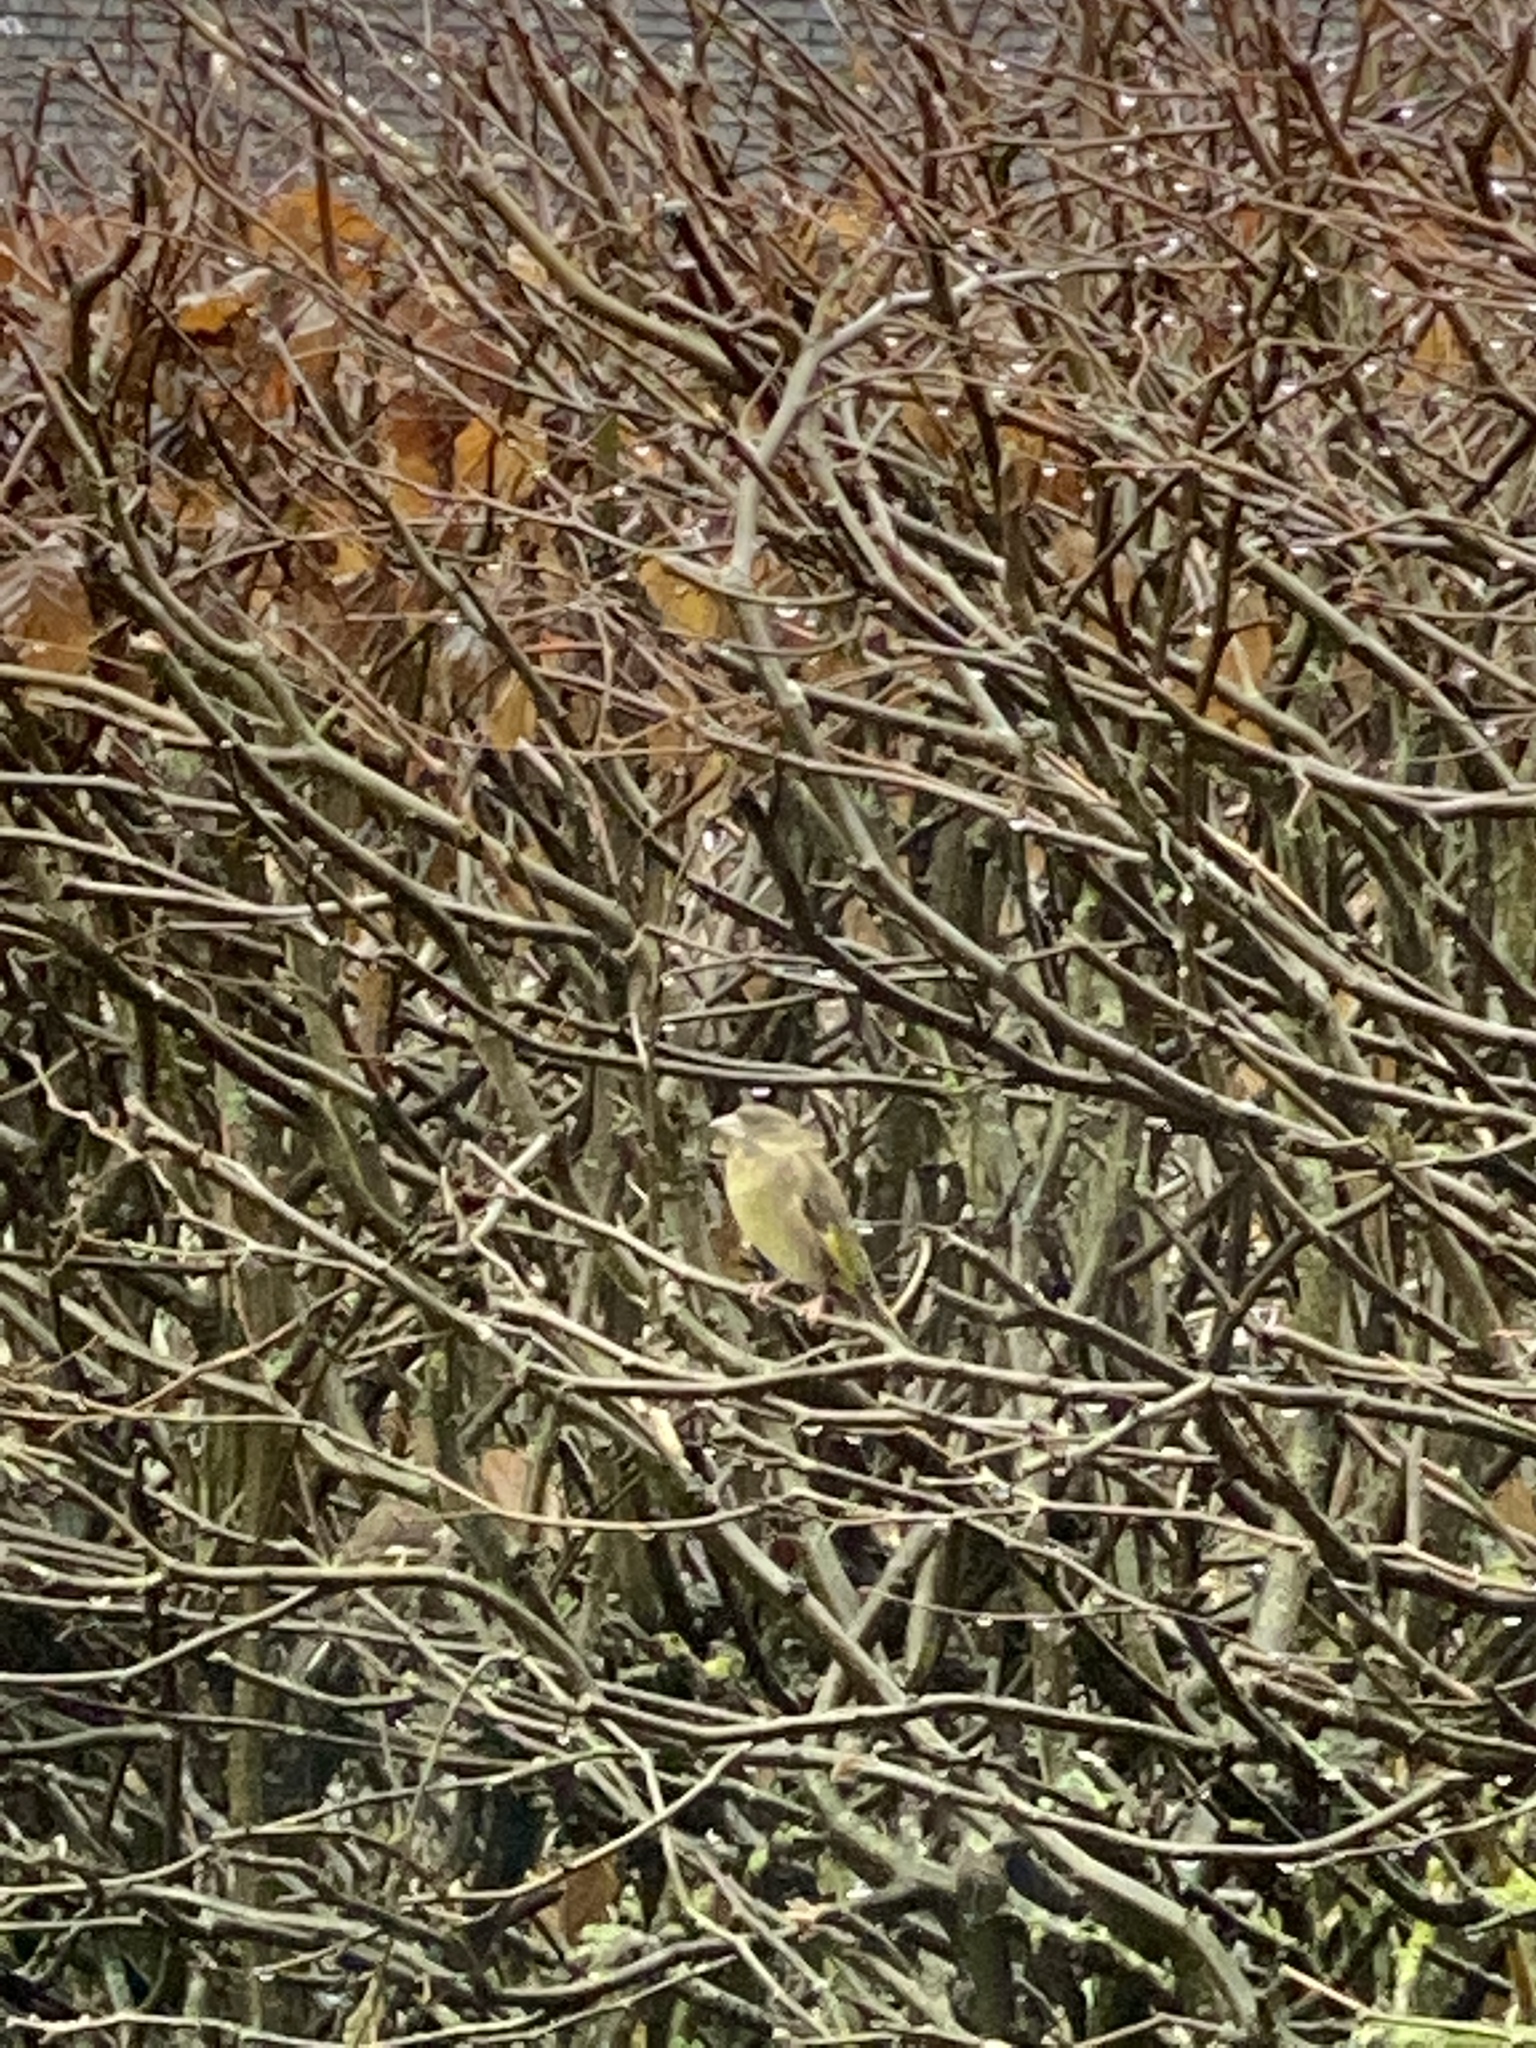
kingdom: Plantae
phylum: Tracheophyta
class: Liliopsida
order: Poales
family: Poaceae
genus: Chloris
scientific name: Chloris chloris
